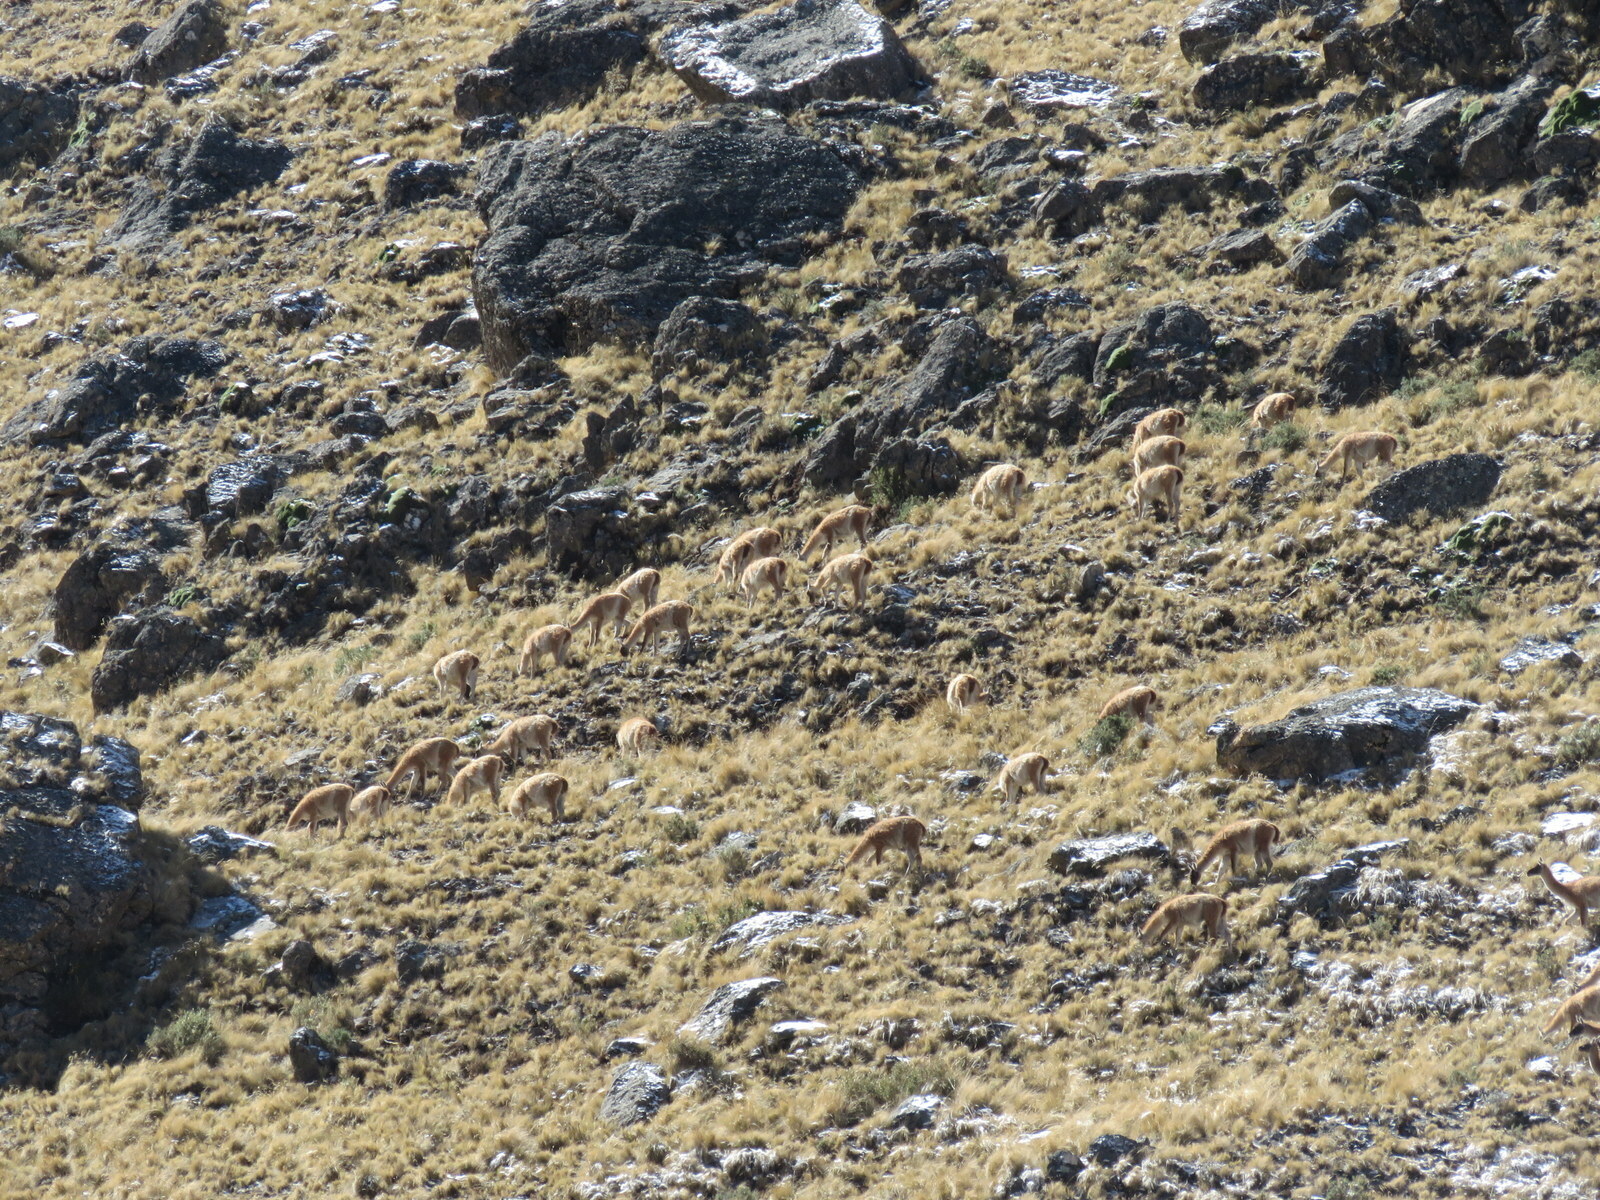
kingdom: Animalia
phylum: Chordata
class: Mammalia
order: Artiodactyla
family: Camelidae
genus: Lama
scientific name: Lama glama
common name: Llama
